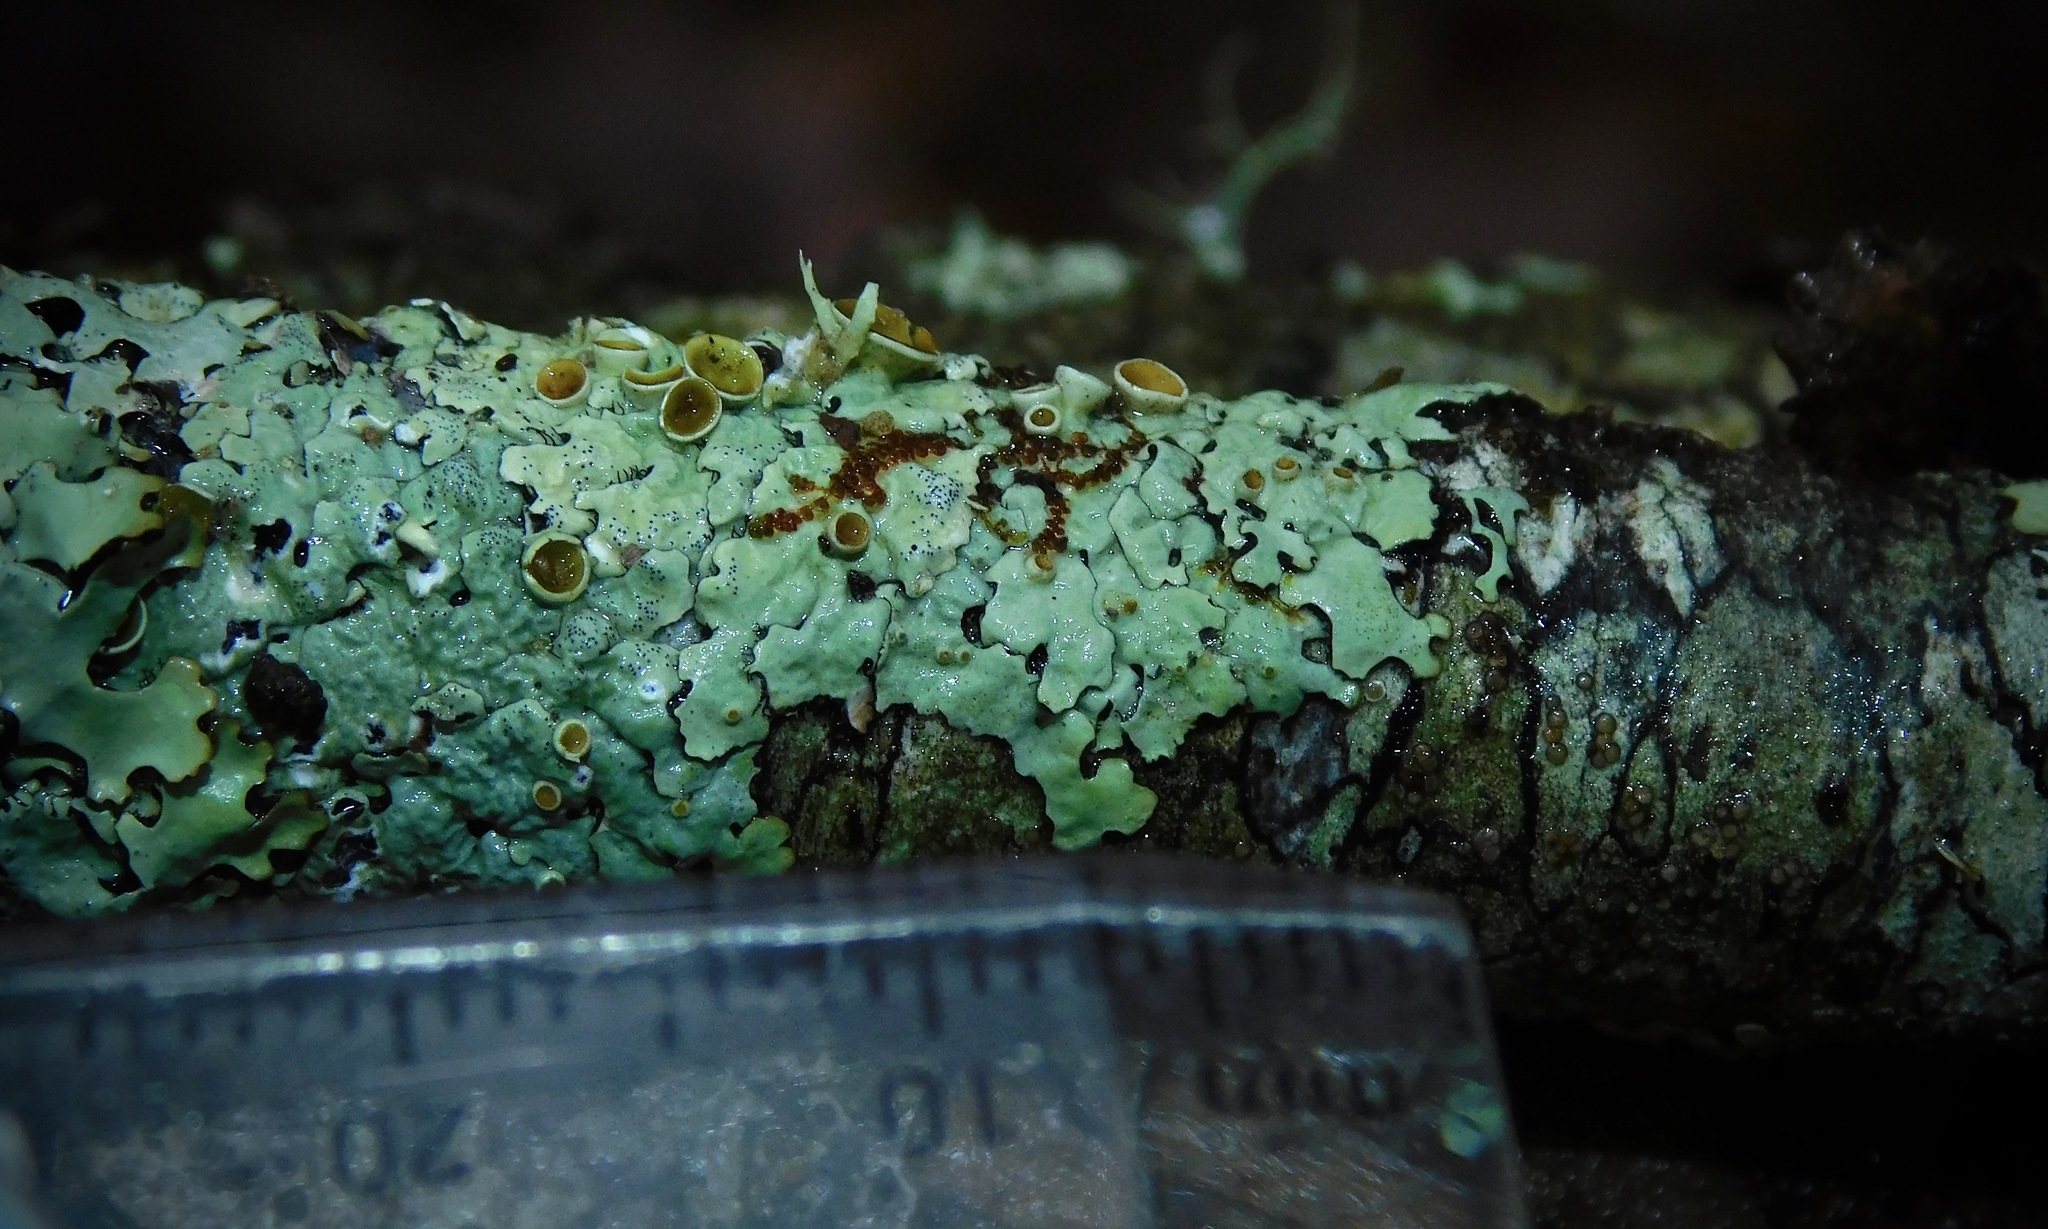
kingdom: Fungi
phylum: Ascomycota
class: Lecanoromycetes
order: Lecanorales
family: Parmeliaceae
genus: Myelochroa
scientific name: Myelochroa galbina
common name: Smooth axil-bristle lichen
